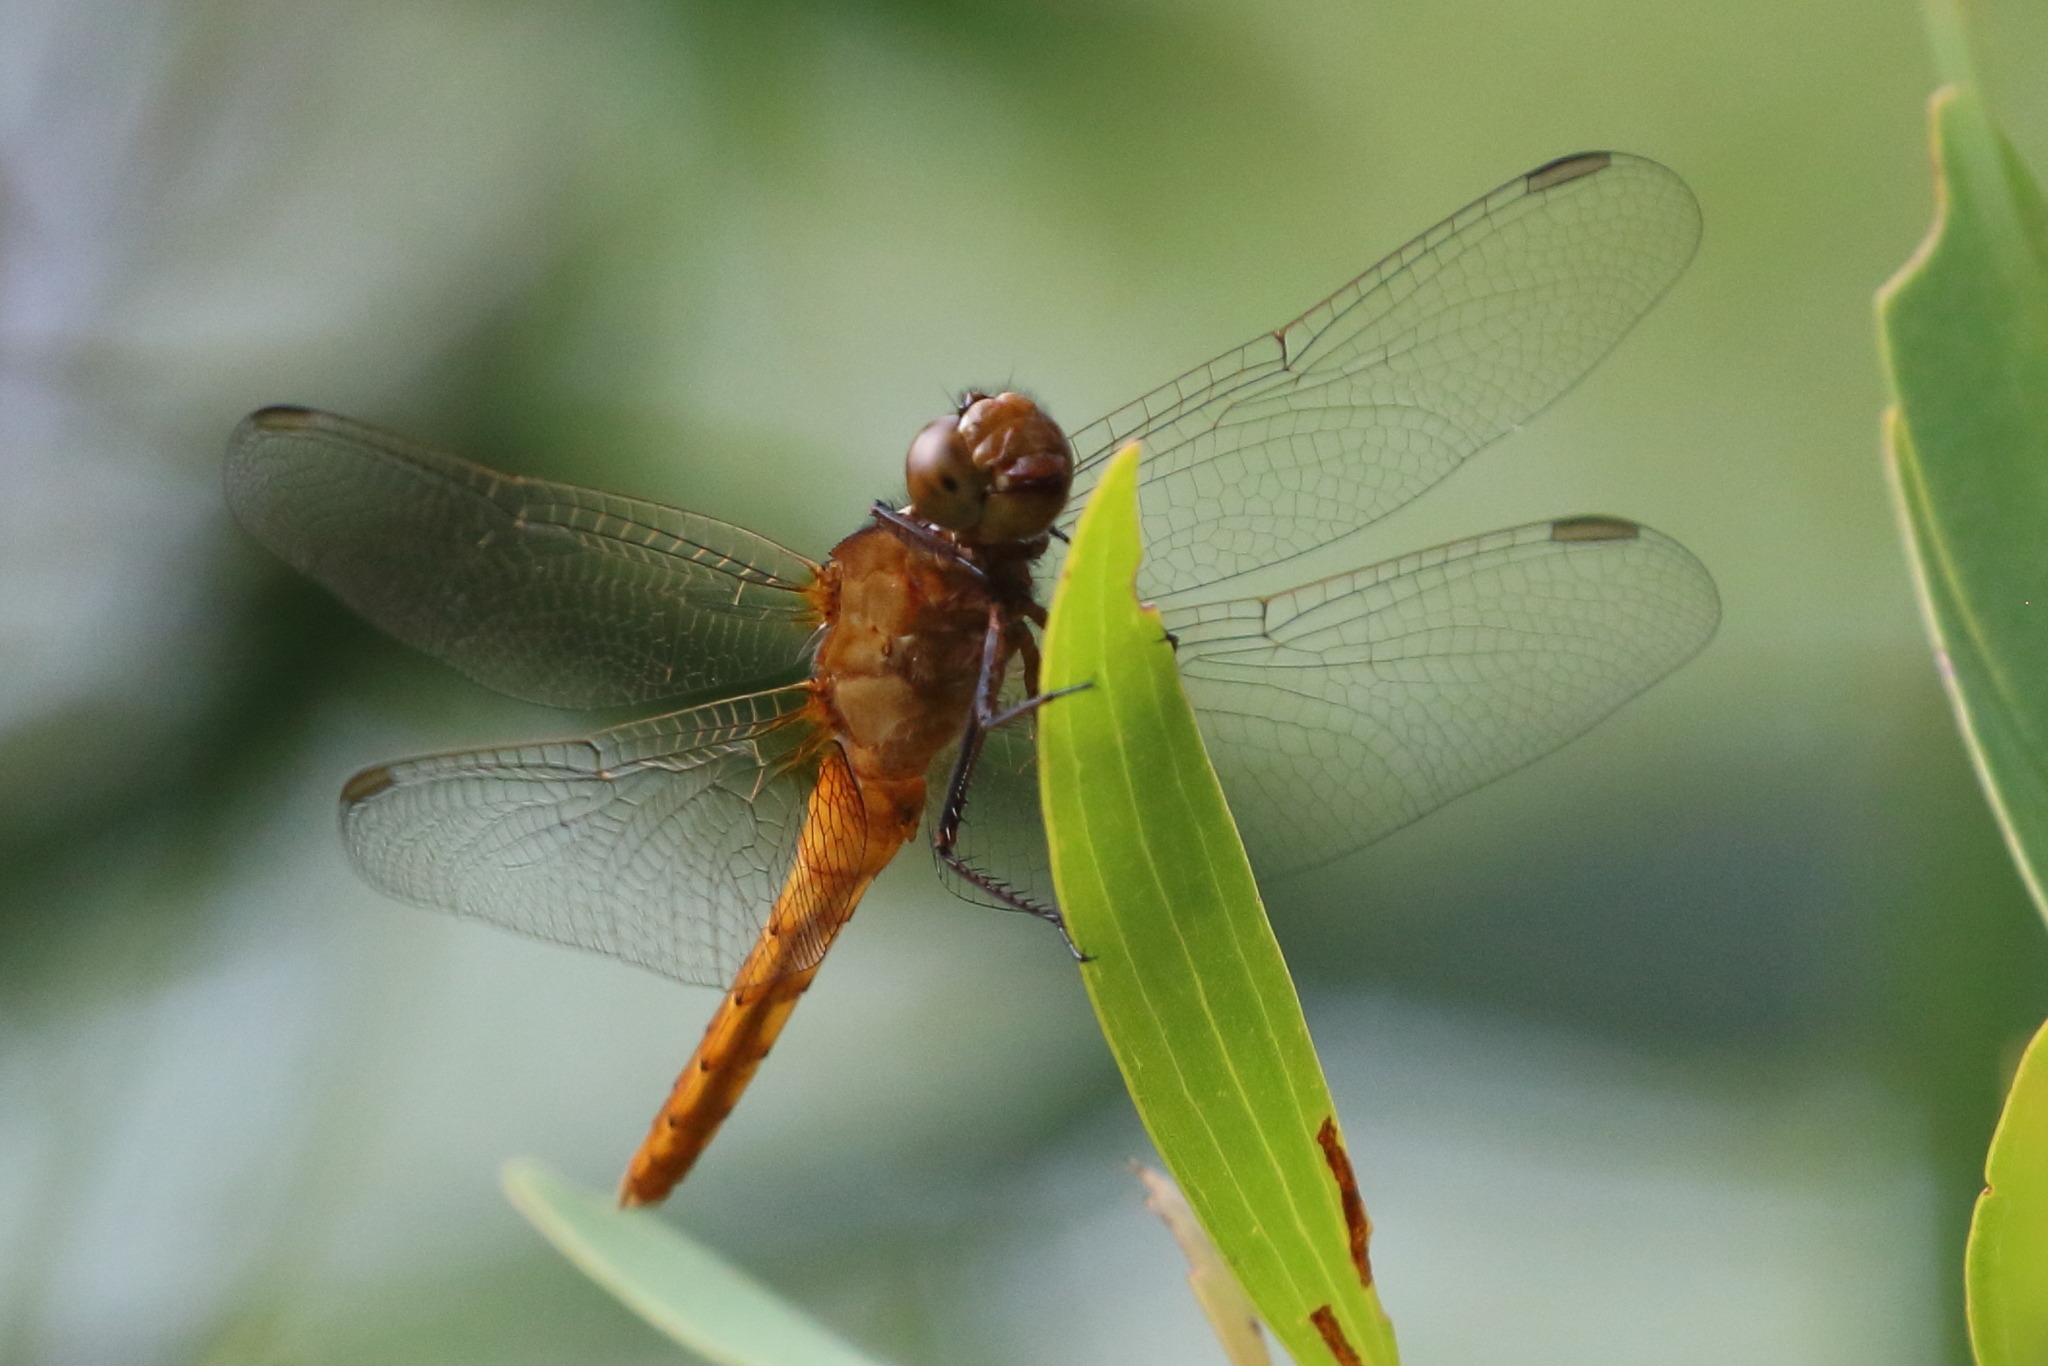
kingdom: Animalia
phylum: Arthropoda
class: Insecta
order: Odonata
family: Libellulidae
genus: Rhodothemis
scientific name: Rhodothemis lieftincki
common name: Red arrow
